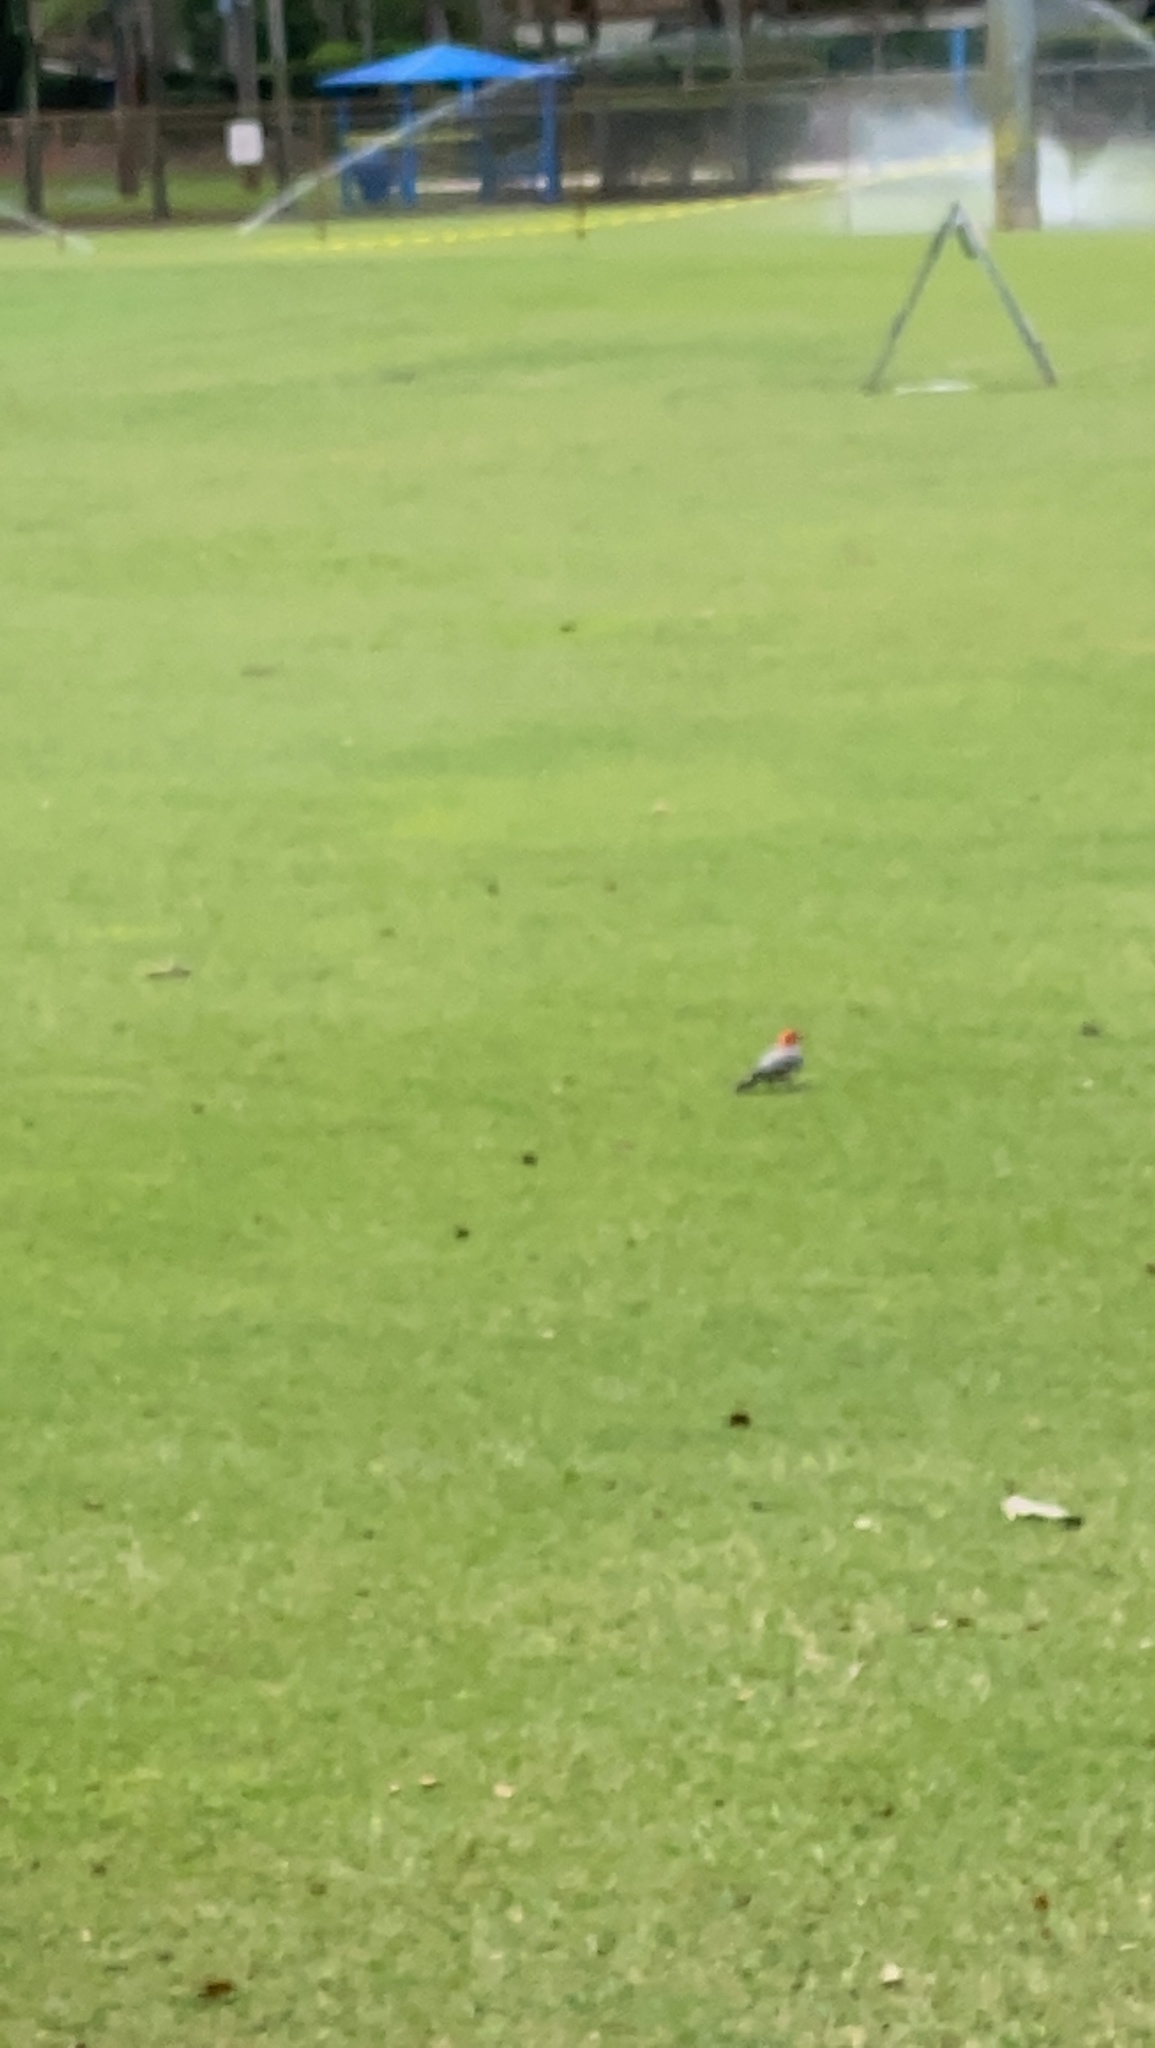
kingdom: Animalia
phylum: Chordata
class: Aves
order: Piciformes
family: Picidae
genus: Melanerpes
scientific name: Melanerpes carolinus
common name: Red-bellied woodpecker
